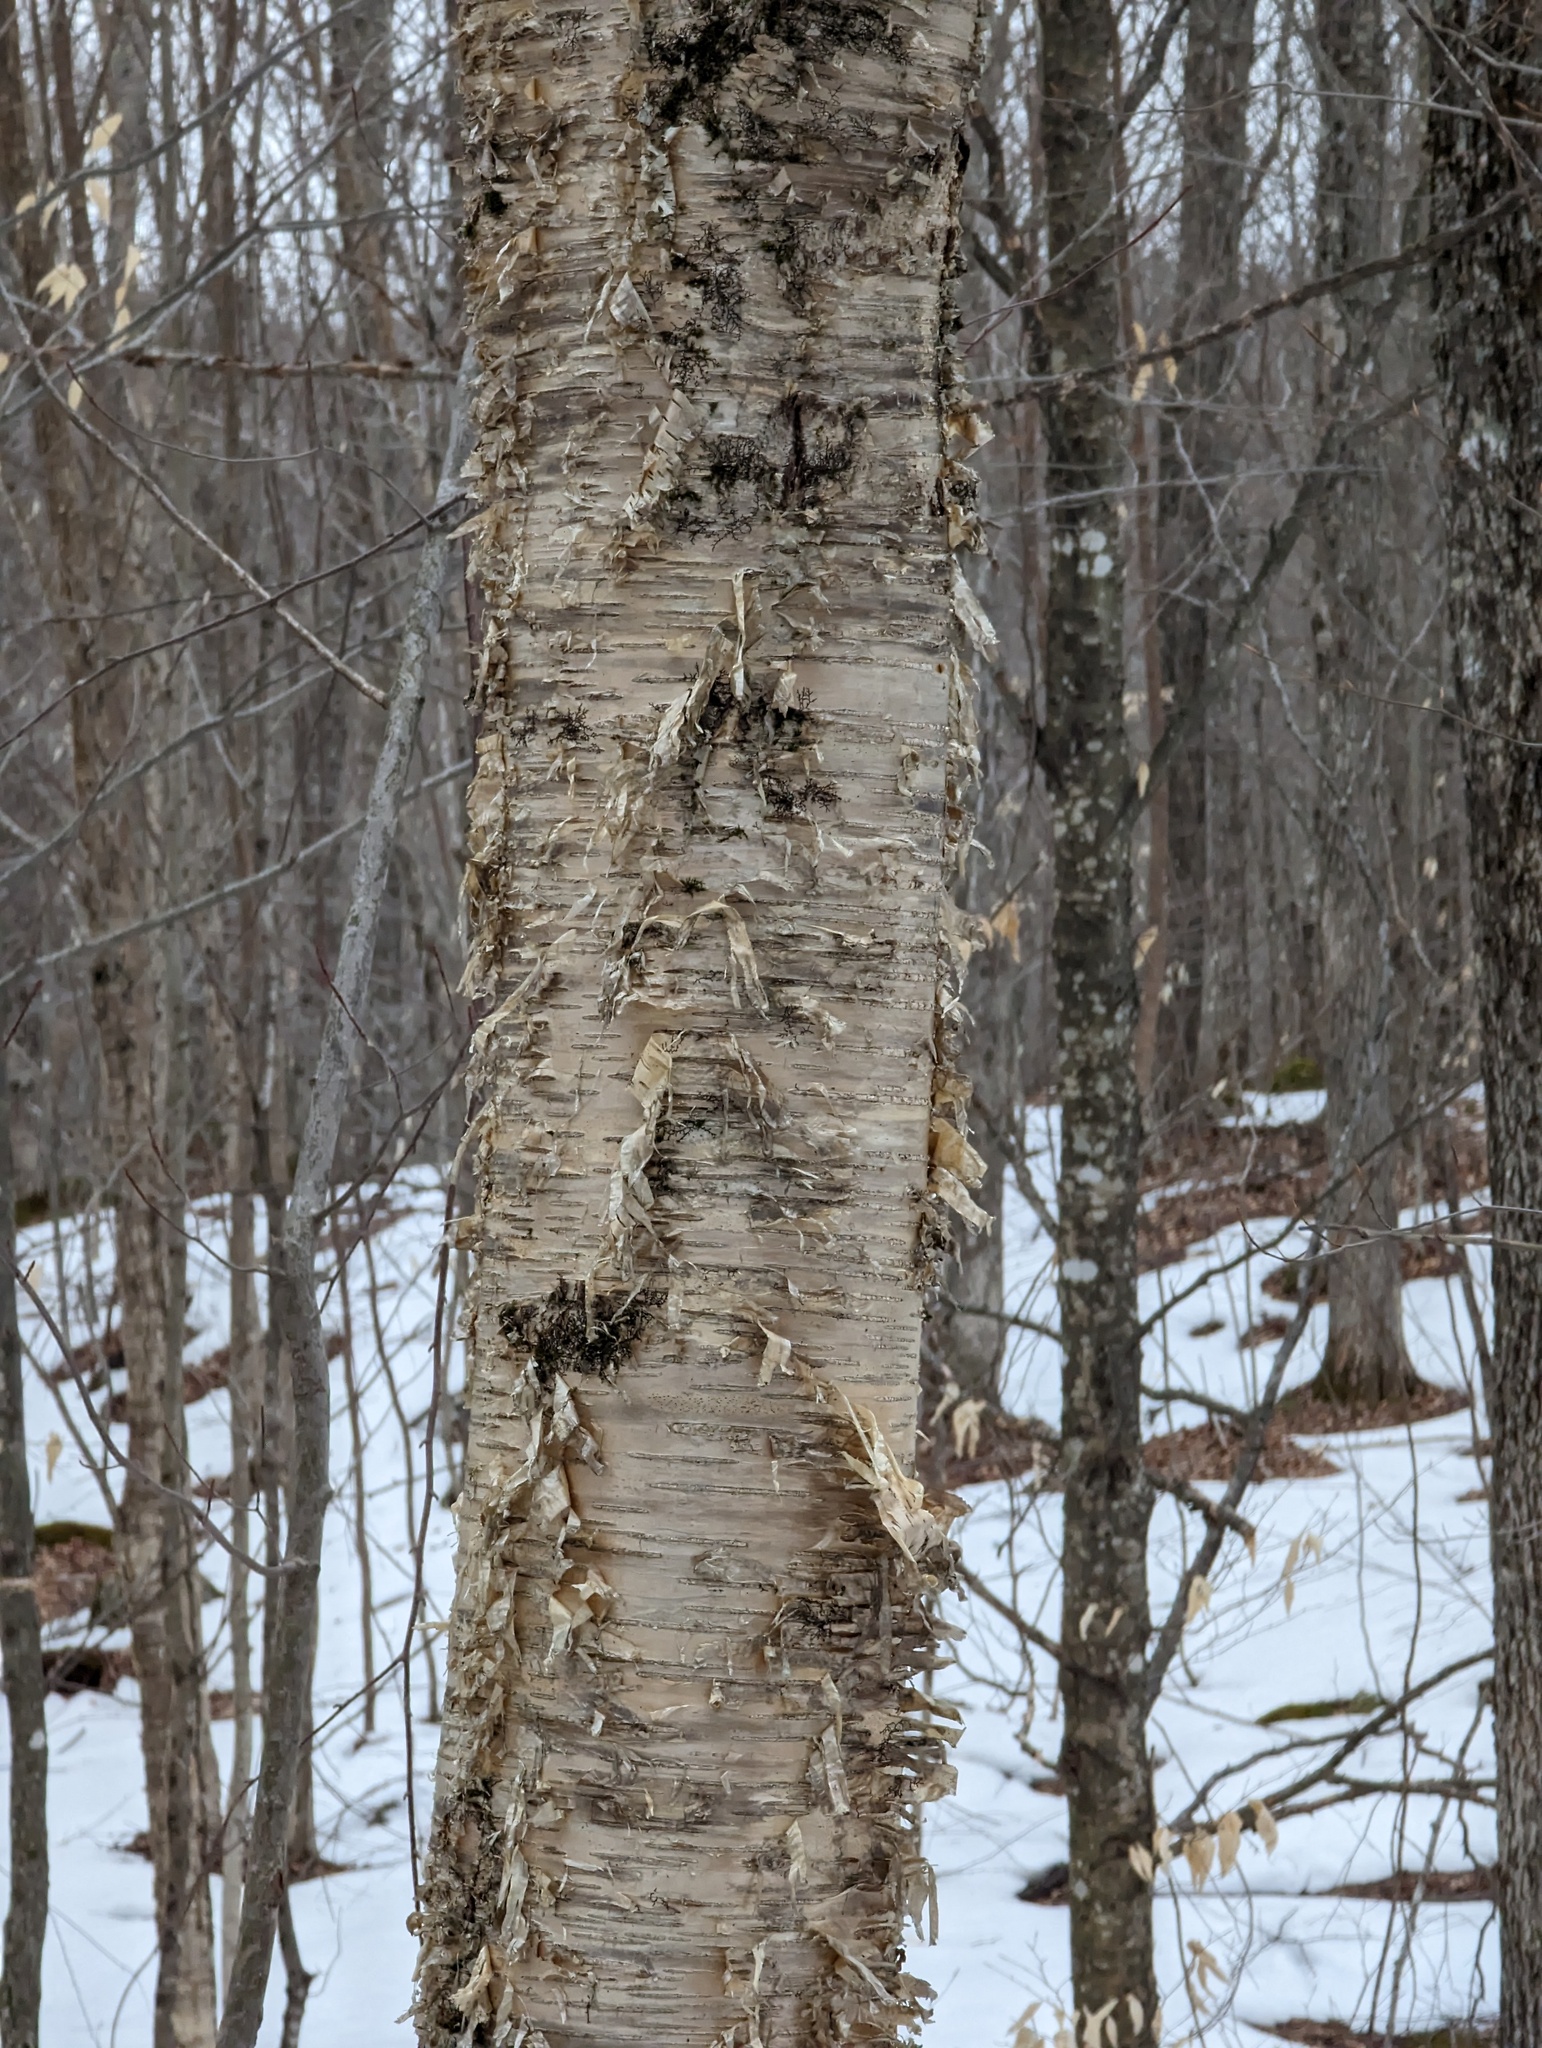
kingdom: Plantae
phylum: Tracheophyta
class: Magnoliopsida
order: Fagales
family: Betulaceae
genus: Betula
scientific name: Betula alleghaniensis
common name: Yellow birch
